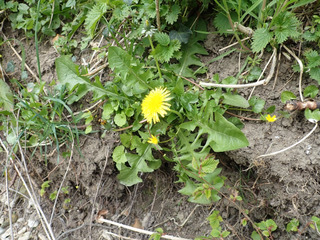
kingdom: Plantae
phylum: Tracheophyta
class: Magnoliopsida
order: Asterales
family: Asteraceae
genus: Taraxacum
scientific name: Taraxacum ochrochlorum
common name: Winged dandelion
